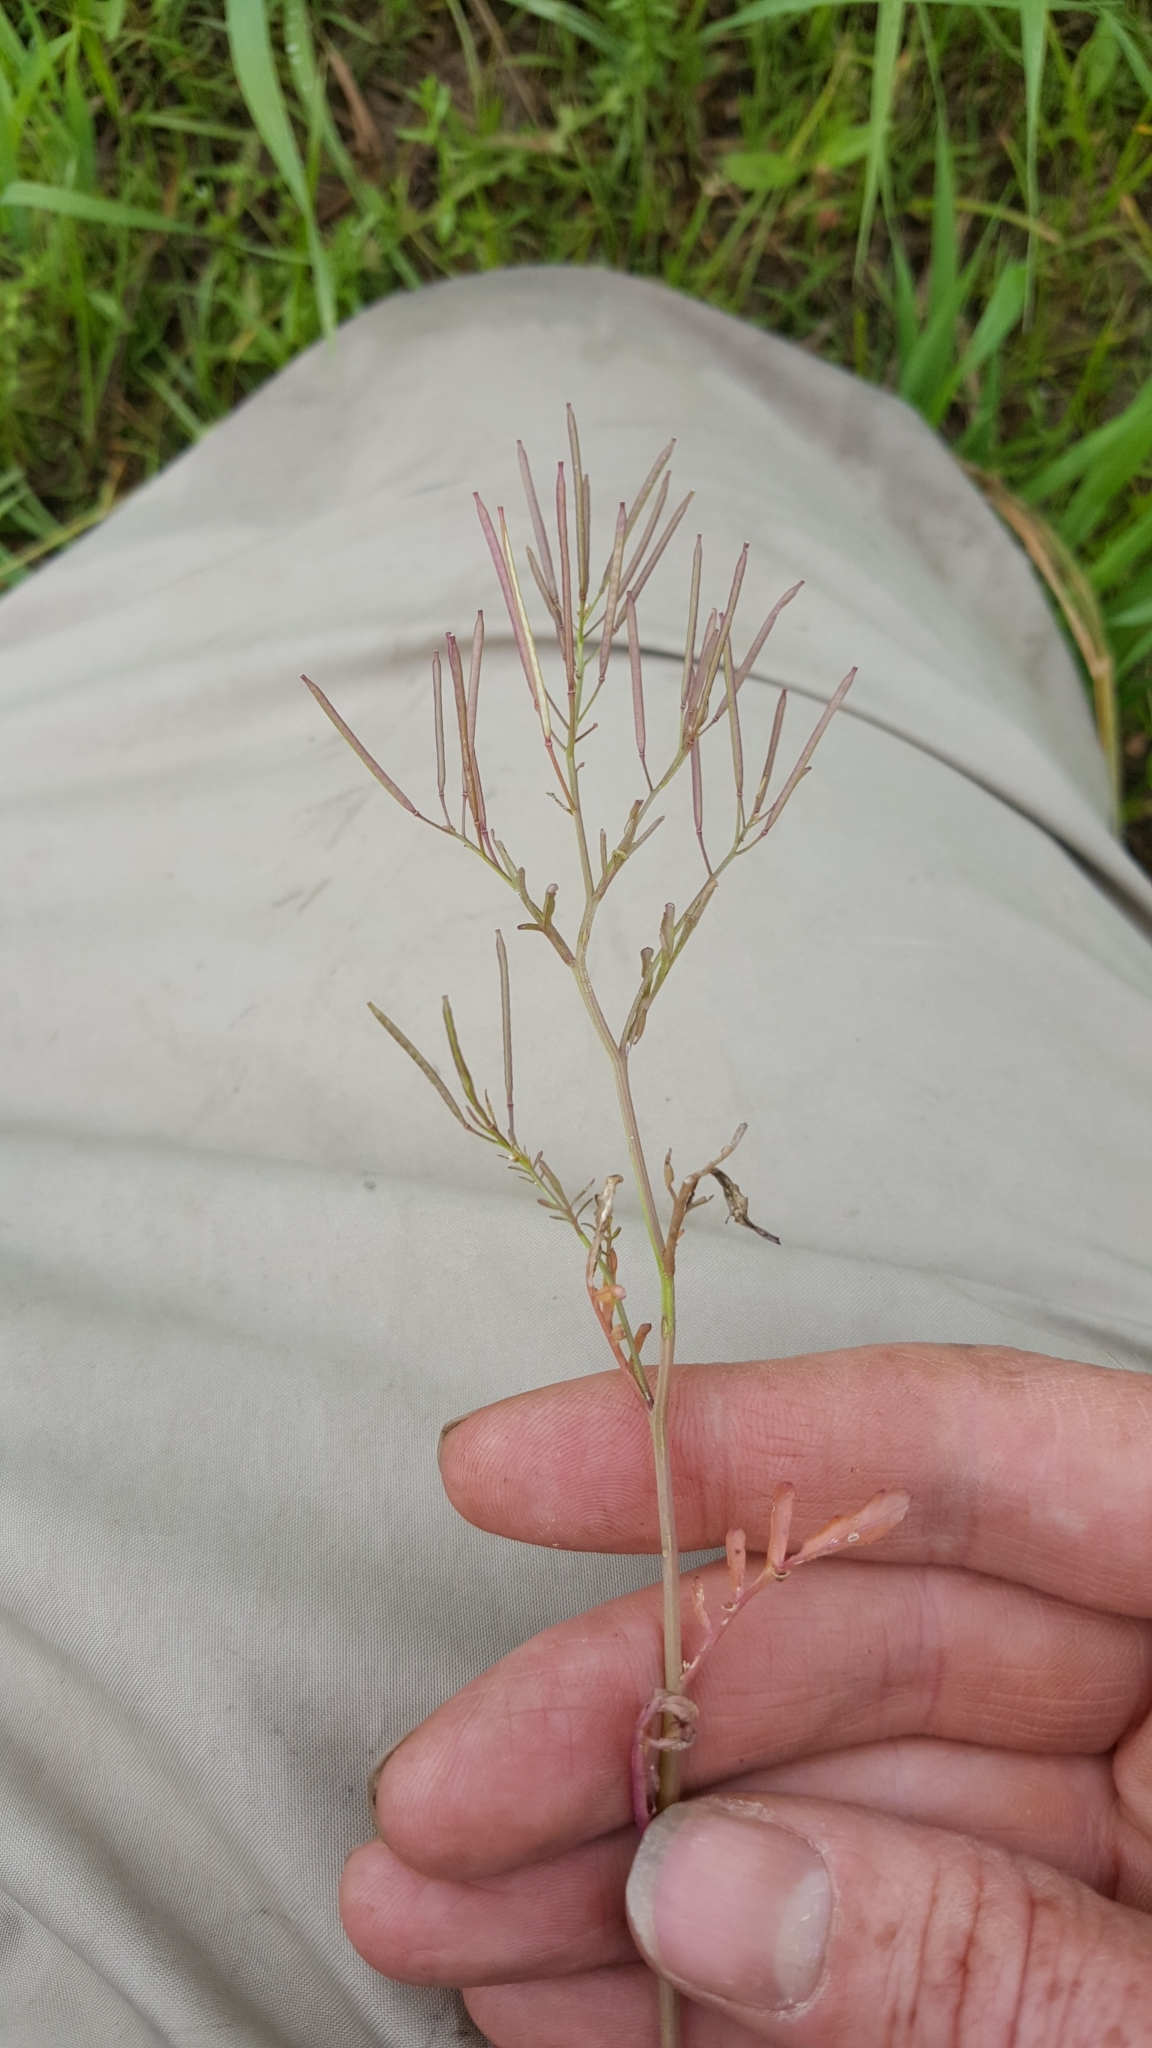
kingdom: Plantae
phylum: Tracheophyta
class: Magnoliopsida
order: Brassicales
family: Brassicaceae
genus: Cardamine
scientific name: Cardamine pensylvanica
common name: Pennsylvania bittercress
